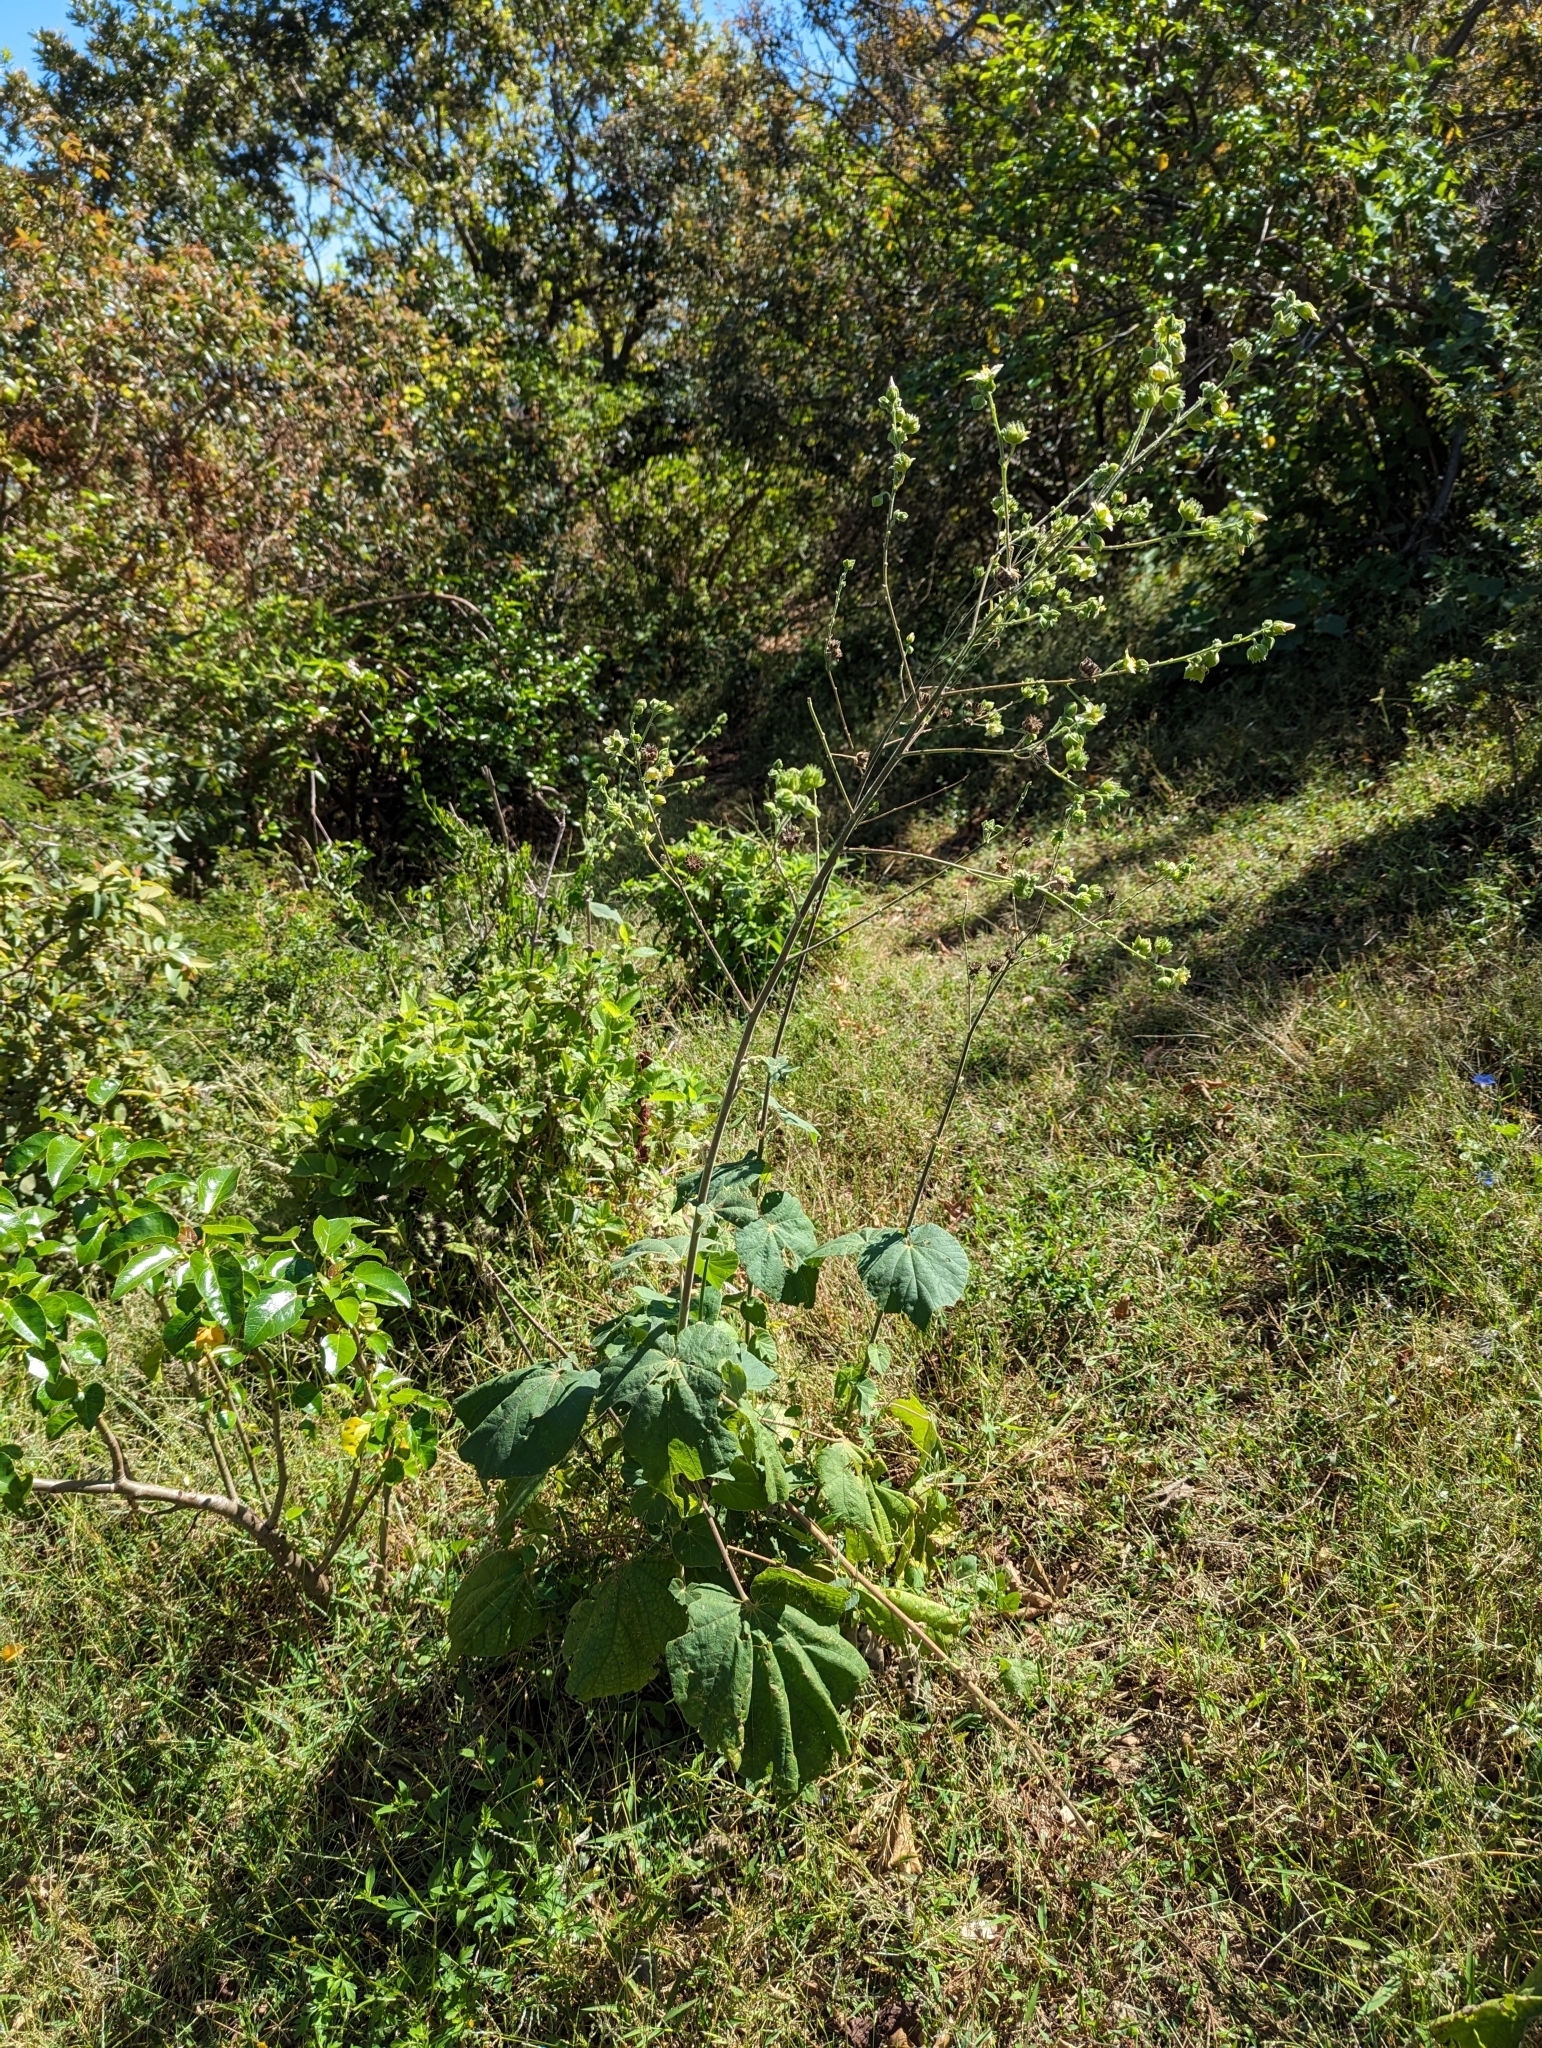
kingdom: Plantae
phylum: Tracheophyta
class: Magnoliopsida
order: Malvales
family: Malvaceae
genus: Abutilon
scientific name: Abutilon xanti
